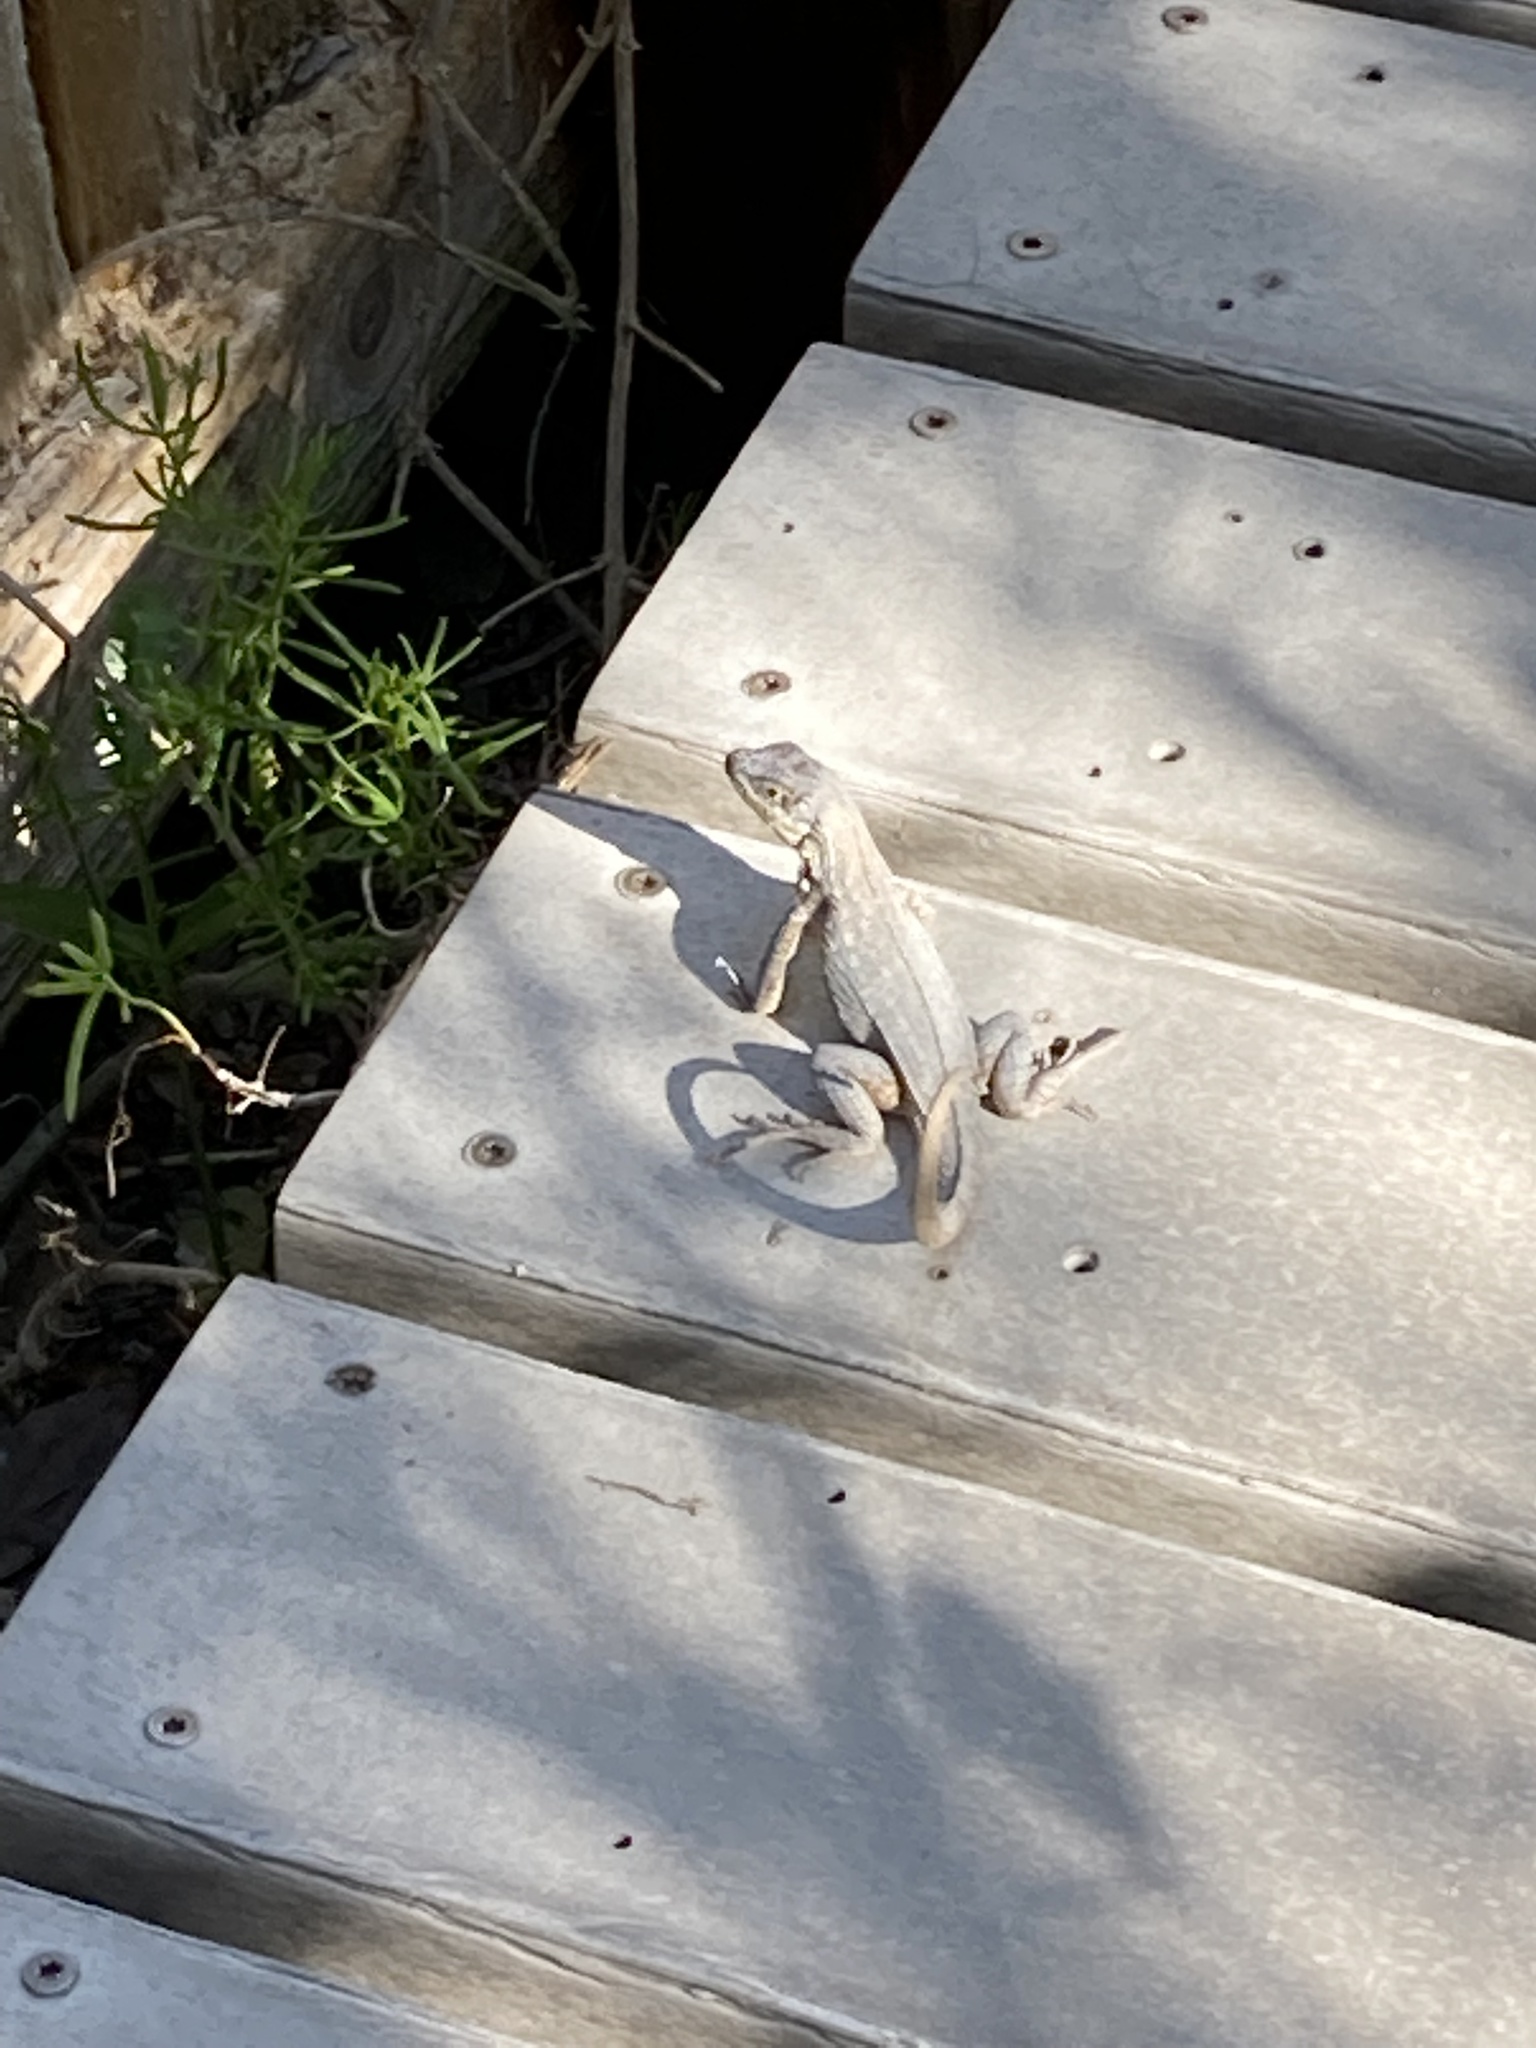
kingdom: Animalia
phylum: Chordata
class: Squamata
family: Leiocephalidae
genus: Leiocephalus
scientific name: Leiocephalus carinatus
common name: Northern curly-tailed lizard
